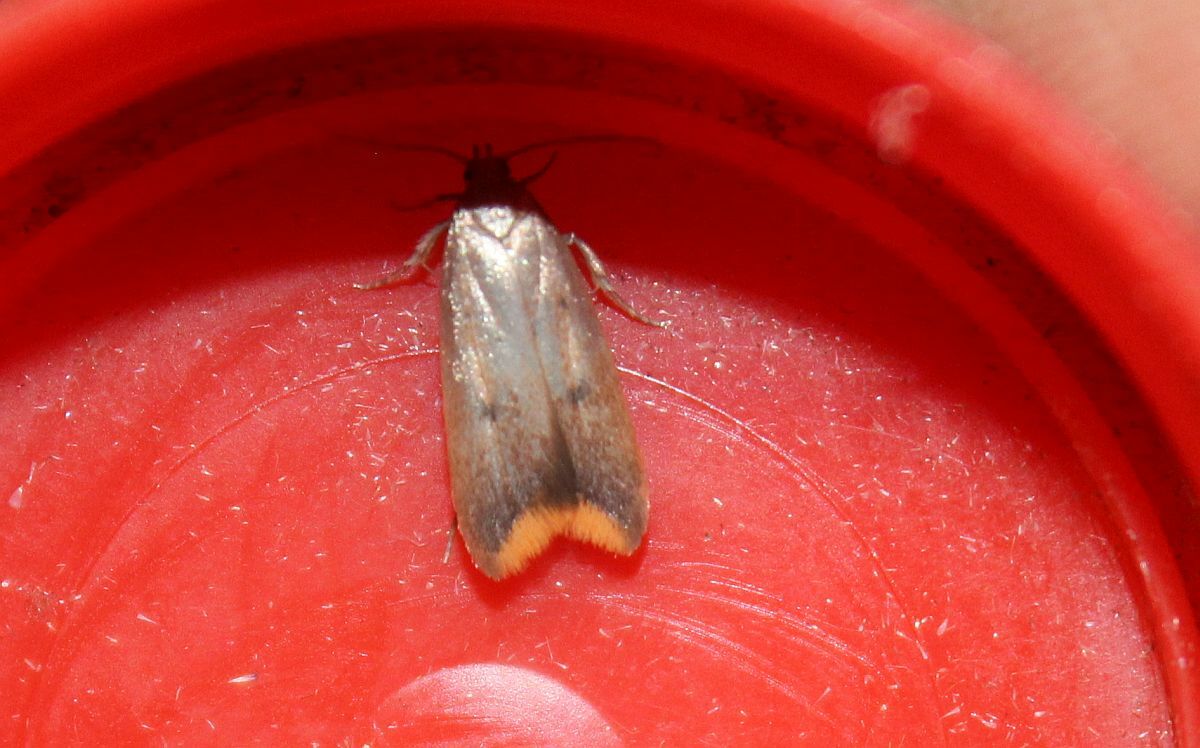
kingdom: Animalia
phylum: Arthropoda
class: Insecta
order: Lepidoptera
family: Oecophoridae
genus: Tachystola
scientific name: Tachystola acroxantha
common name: Ruddy streak
